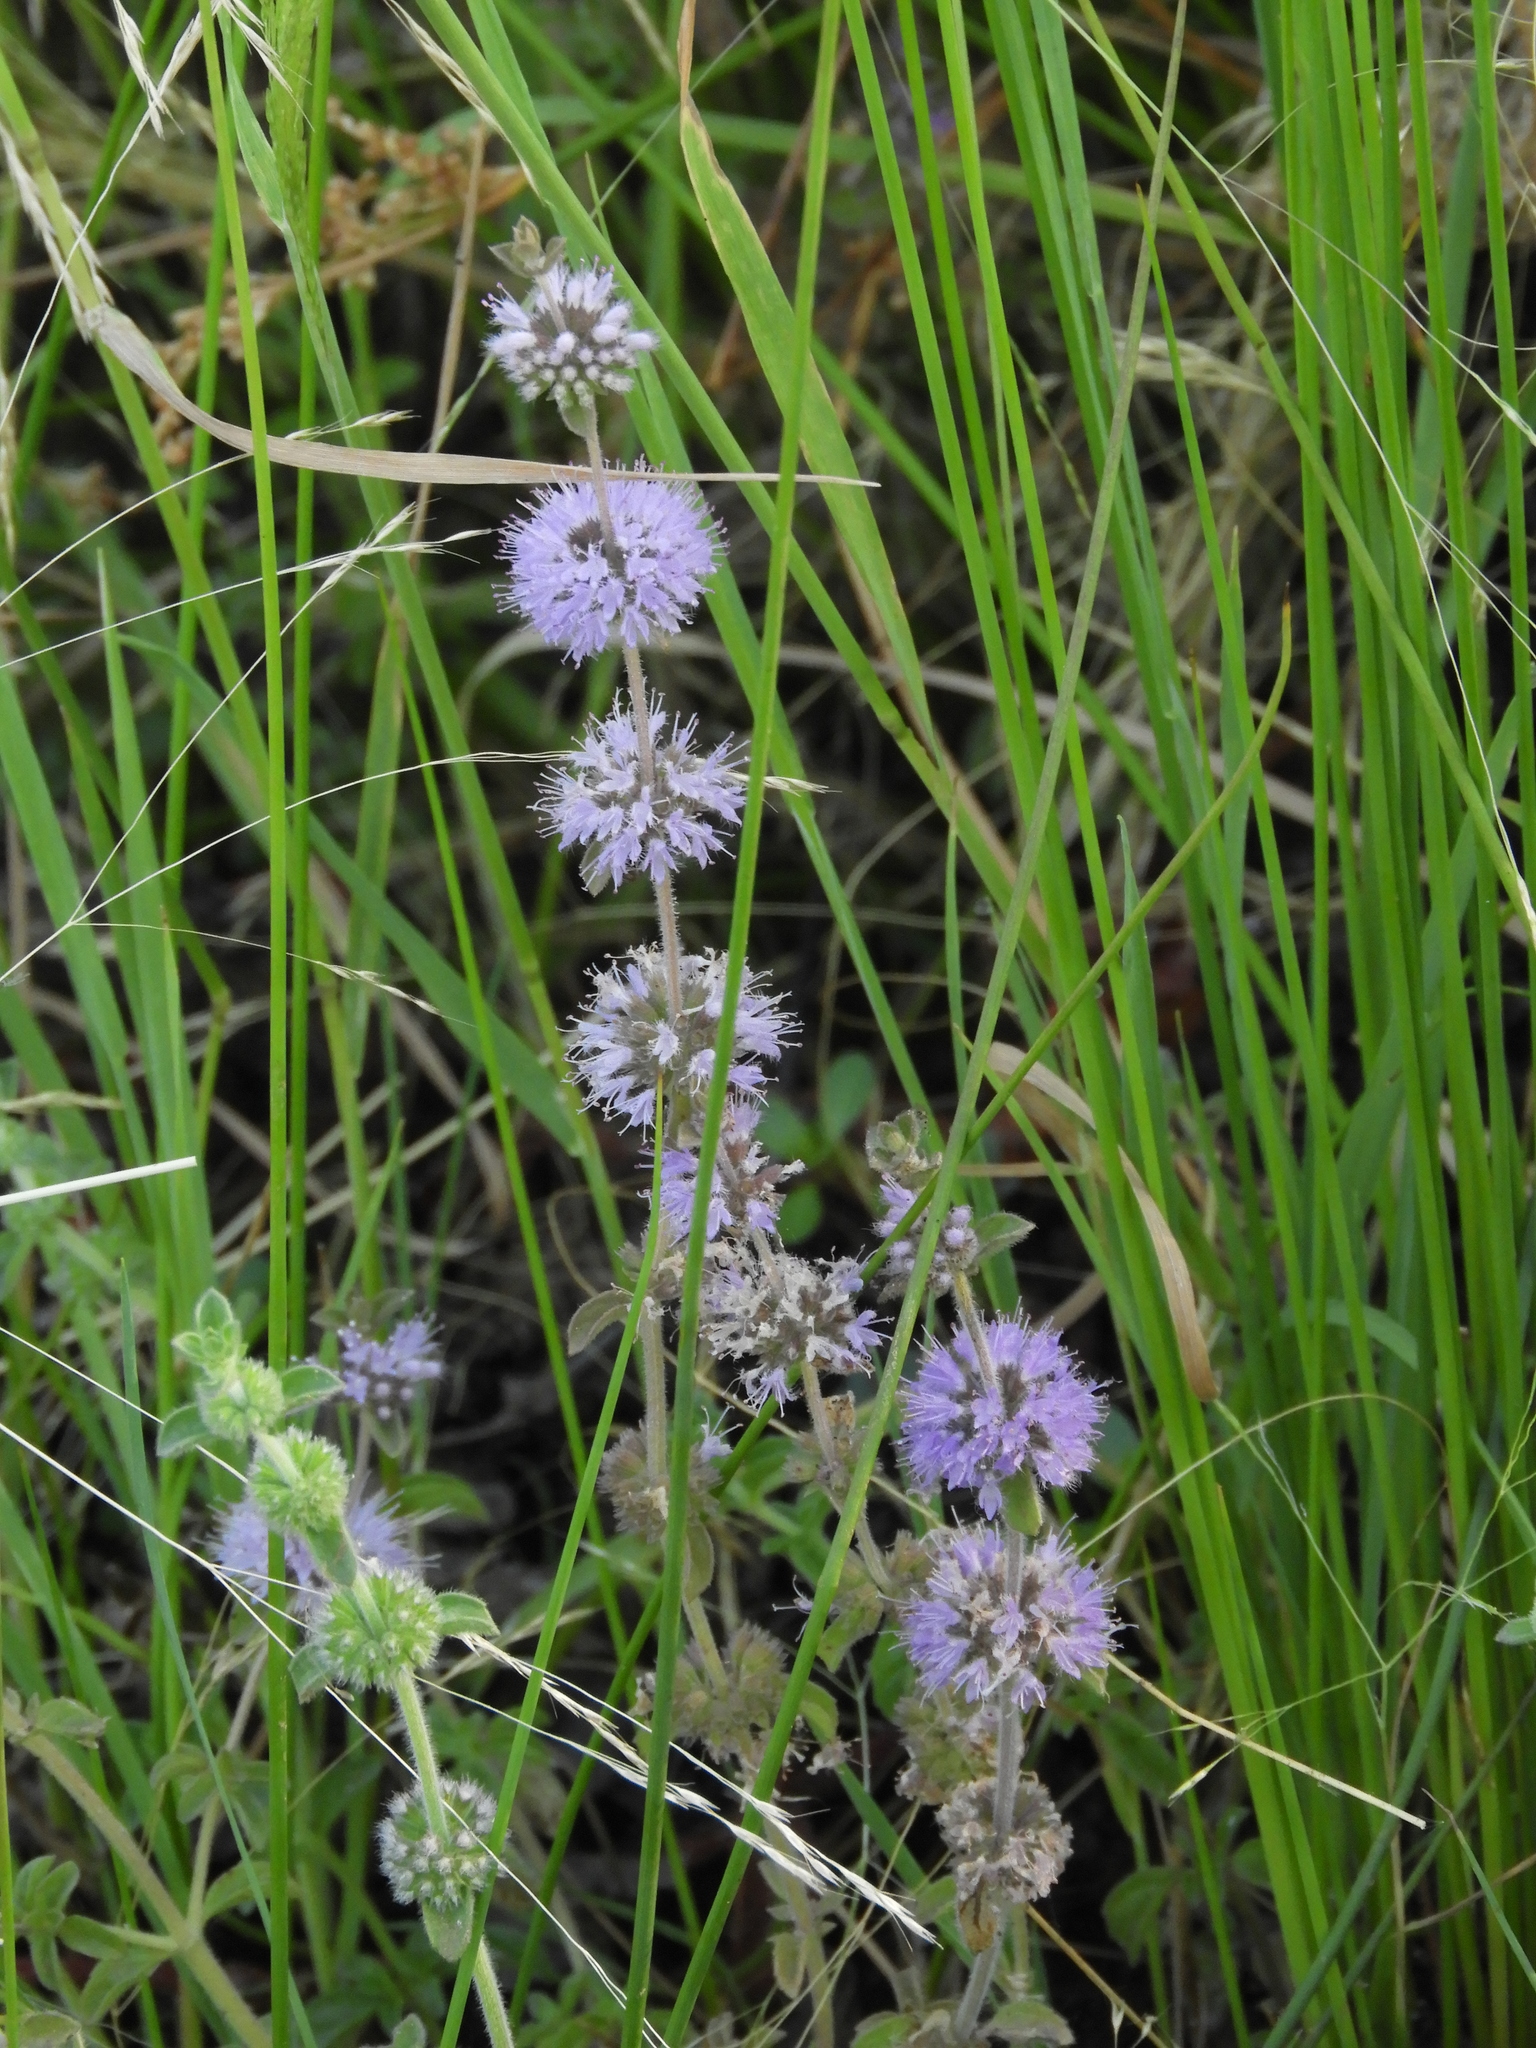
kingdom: Plantae
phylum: Tracheophyta
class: Magnoliopsida
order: Lamiales
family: Lamiaceae
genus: Mentha
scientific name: Mentha pulegium
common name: Pennyroyal
